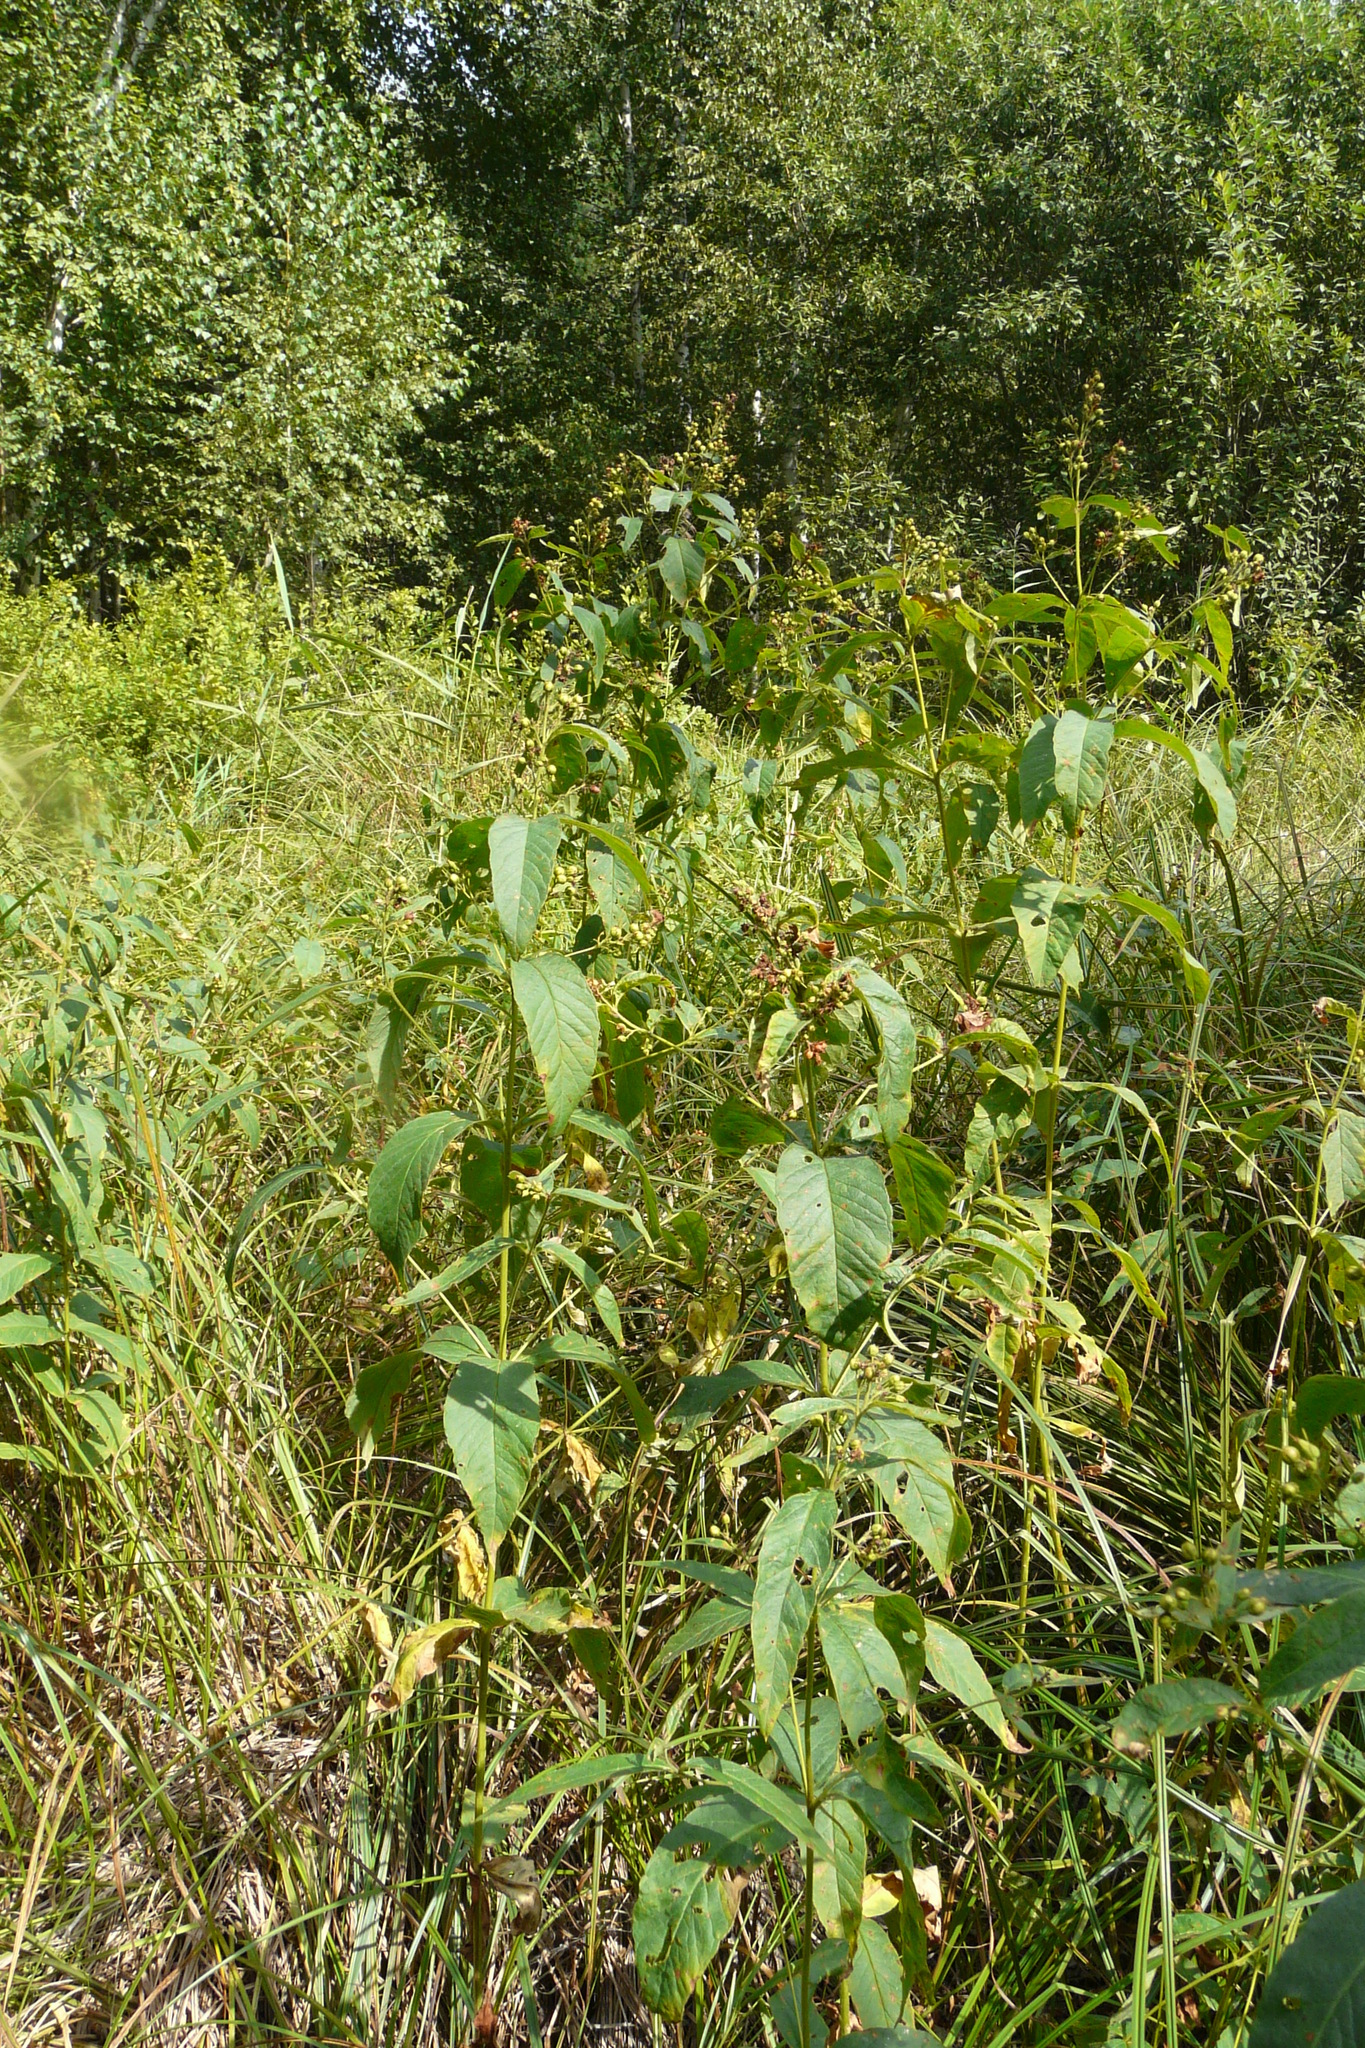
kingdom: Plantae
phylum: Tracheophyta
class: Magnoliopsida
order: Ericales
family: Primulaceae
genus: Lysimachia
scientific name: Lysimachia vulgaris
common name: Yellow loosestrife
